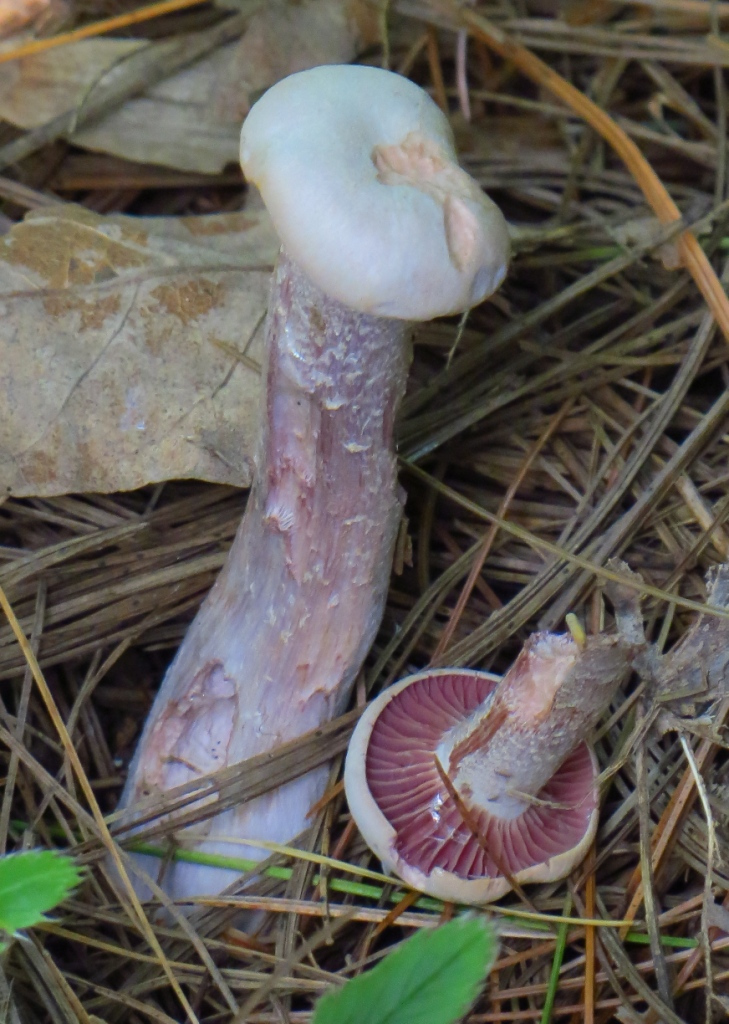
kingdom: Fungi
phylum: Basidiomycota
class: Agaricomycetes
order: Agaricales
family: Hydnangiaceae
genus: Laccaria
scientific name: Laccaria ochropurpurea
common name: Purple laccaria
